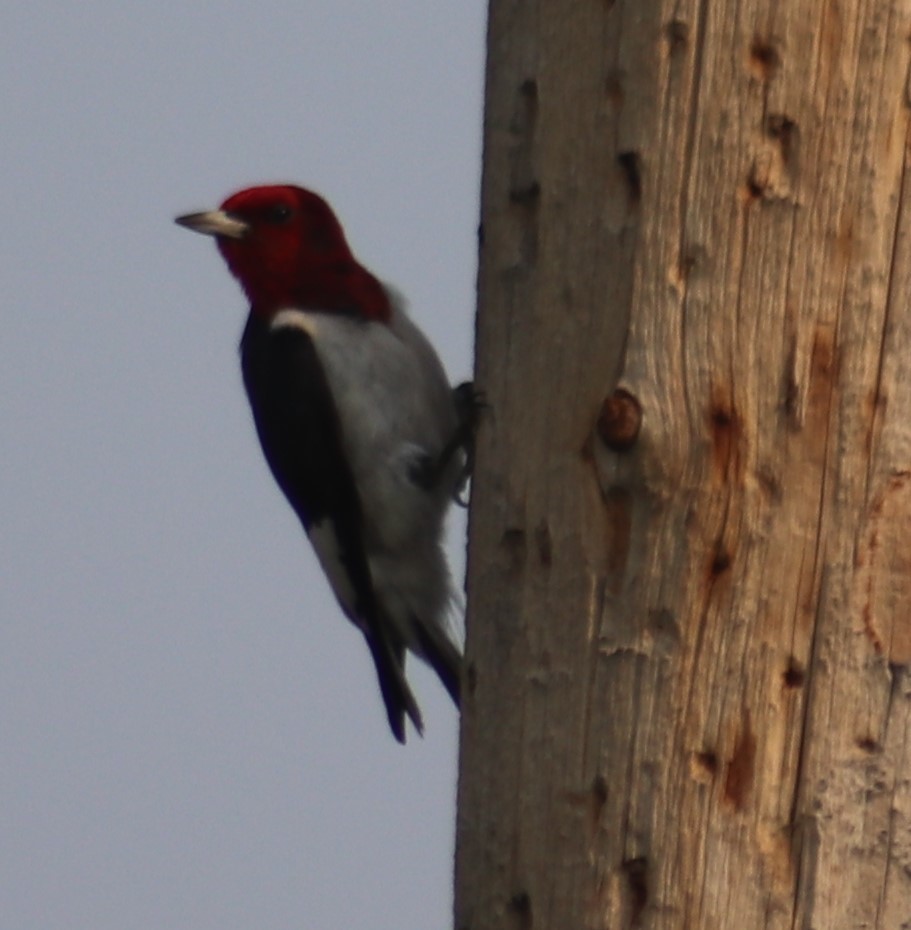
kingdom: Animalia
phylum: Chordata
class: Aves
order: Piciformes
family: Picidae
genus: Melanerpes
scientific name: Melanerpes erythrocephalus
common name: Red-headed woodpecker
